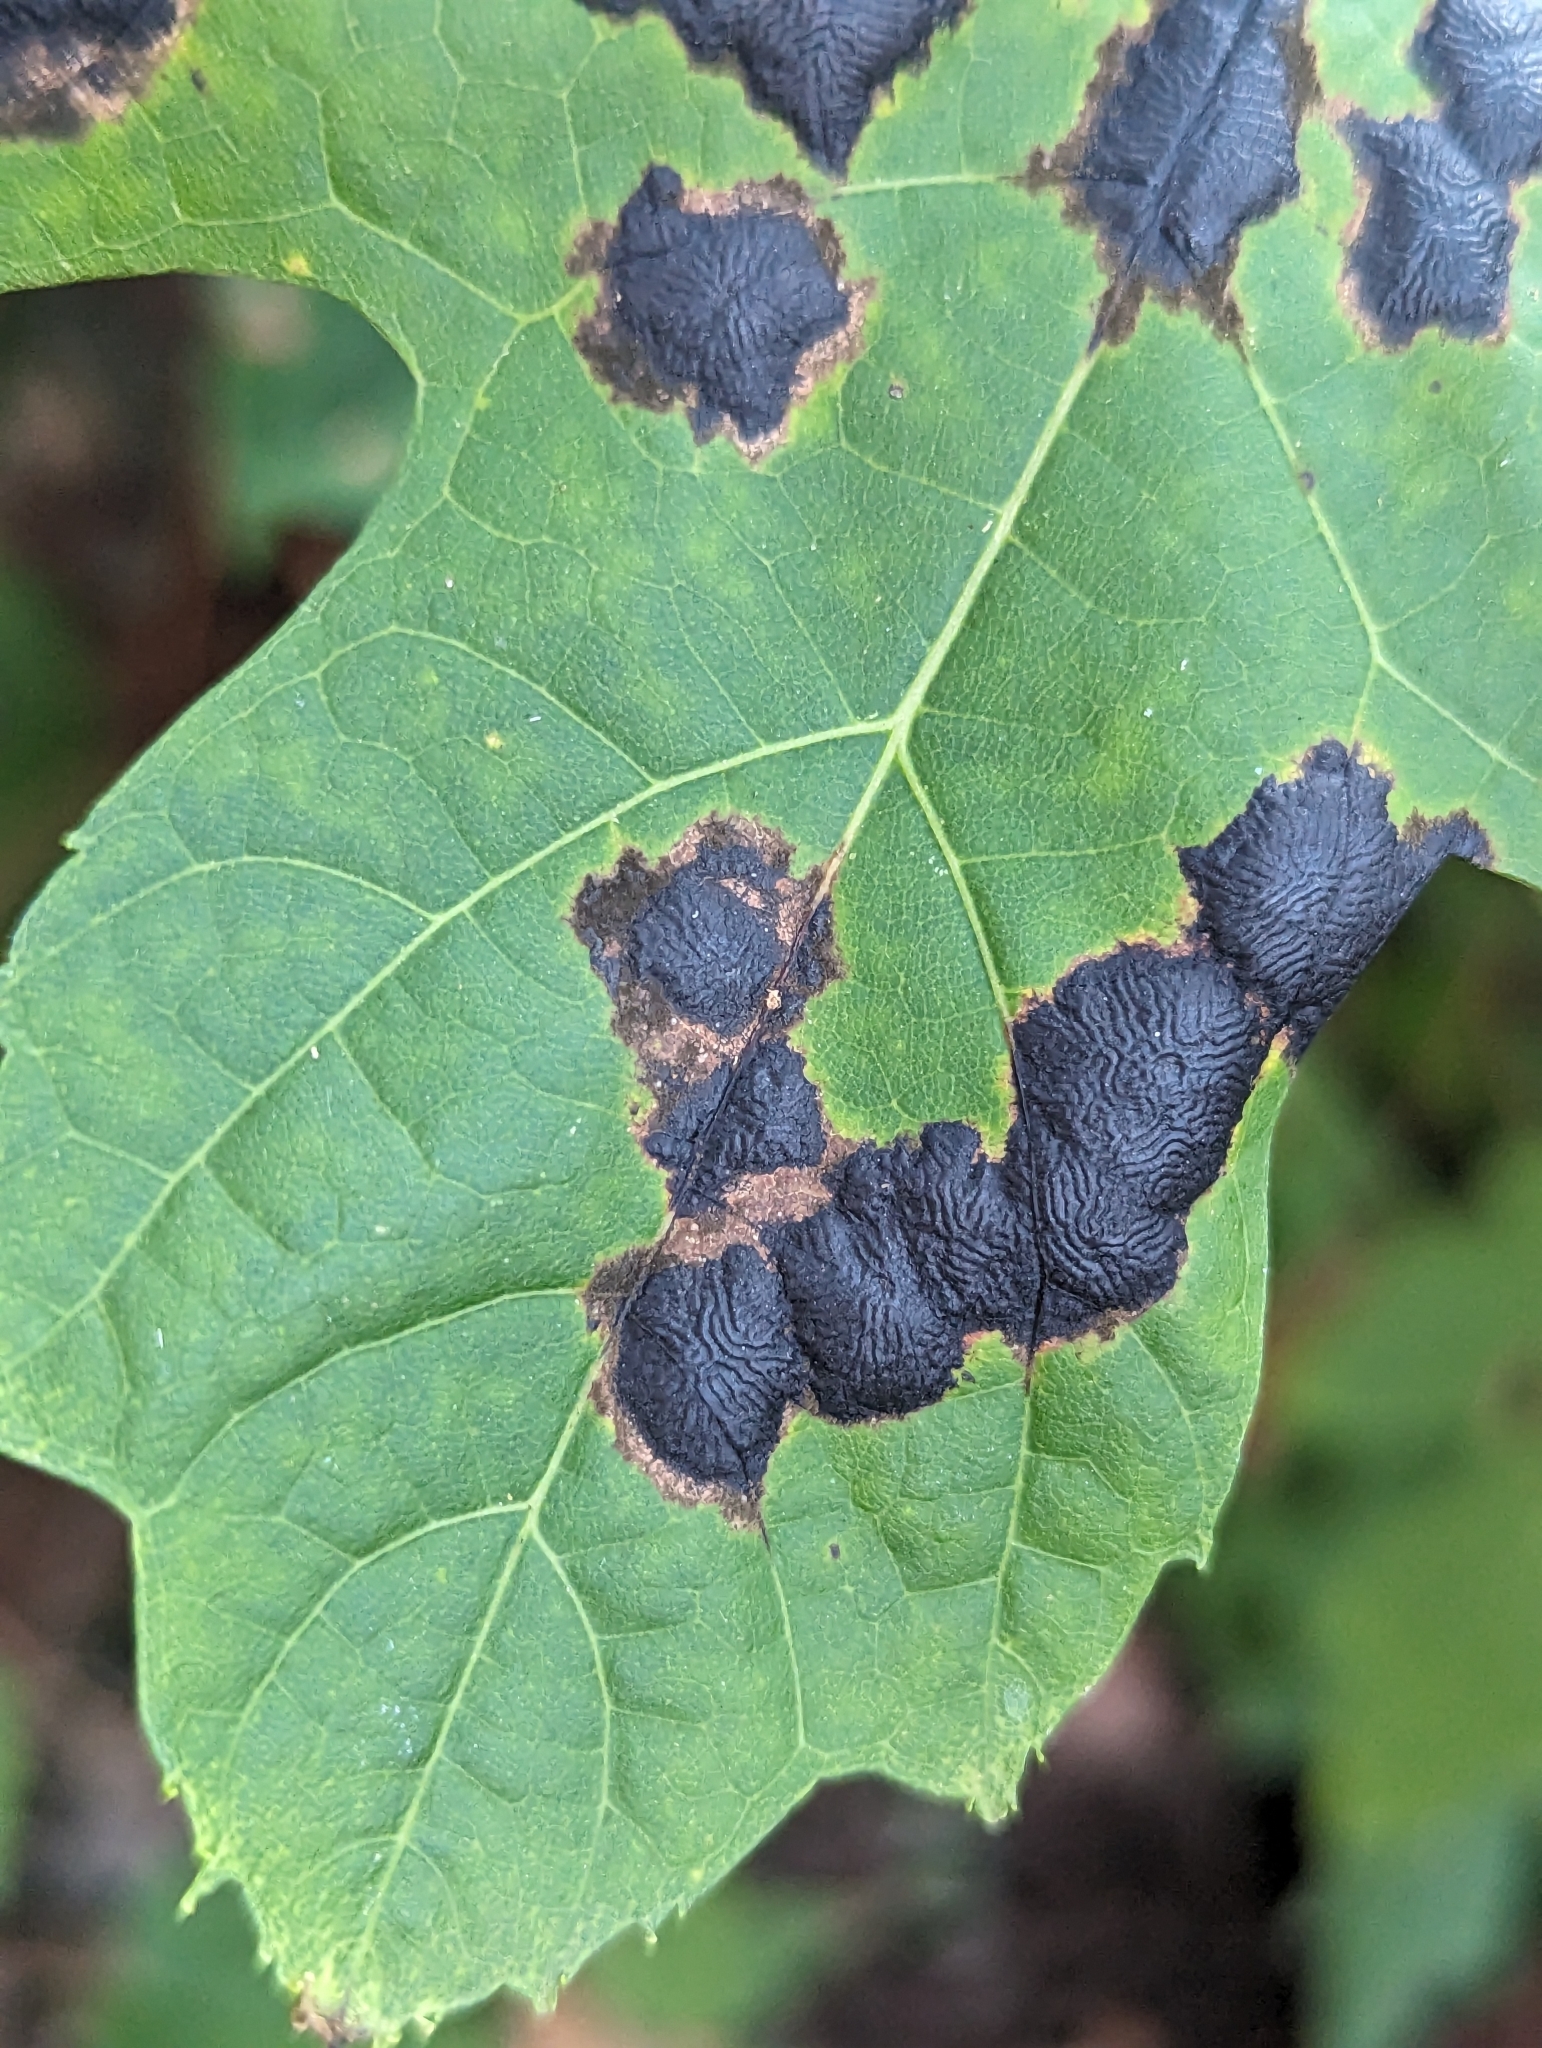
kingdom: Fungi
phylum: Ascomycota
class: Leotiomycetes
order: Rhytismatales
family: Rhytismataceae
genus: Rhytisma
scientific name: Rhytisma americanum
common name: American tar spot
